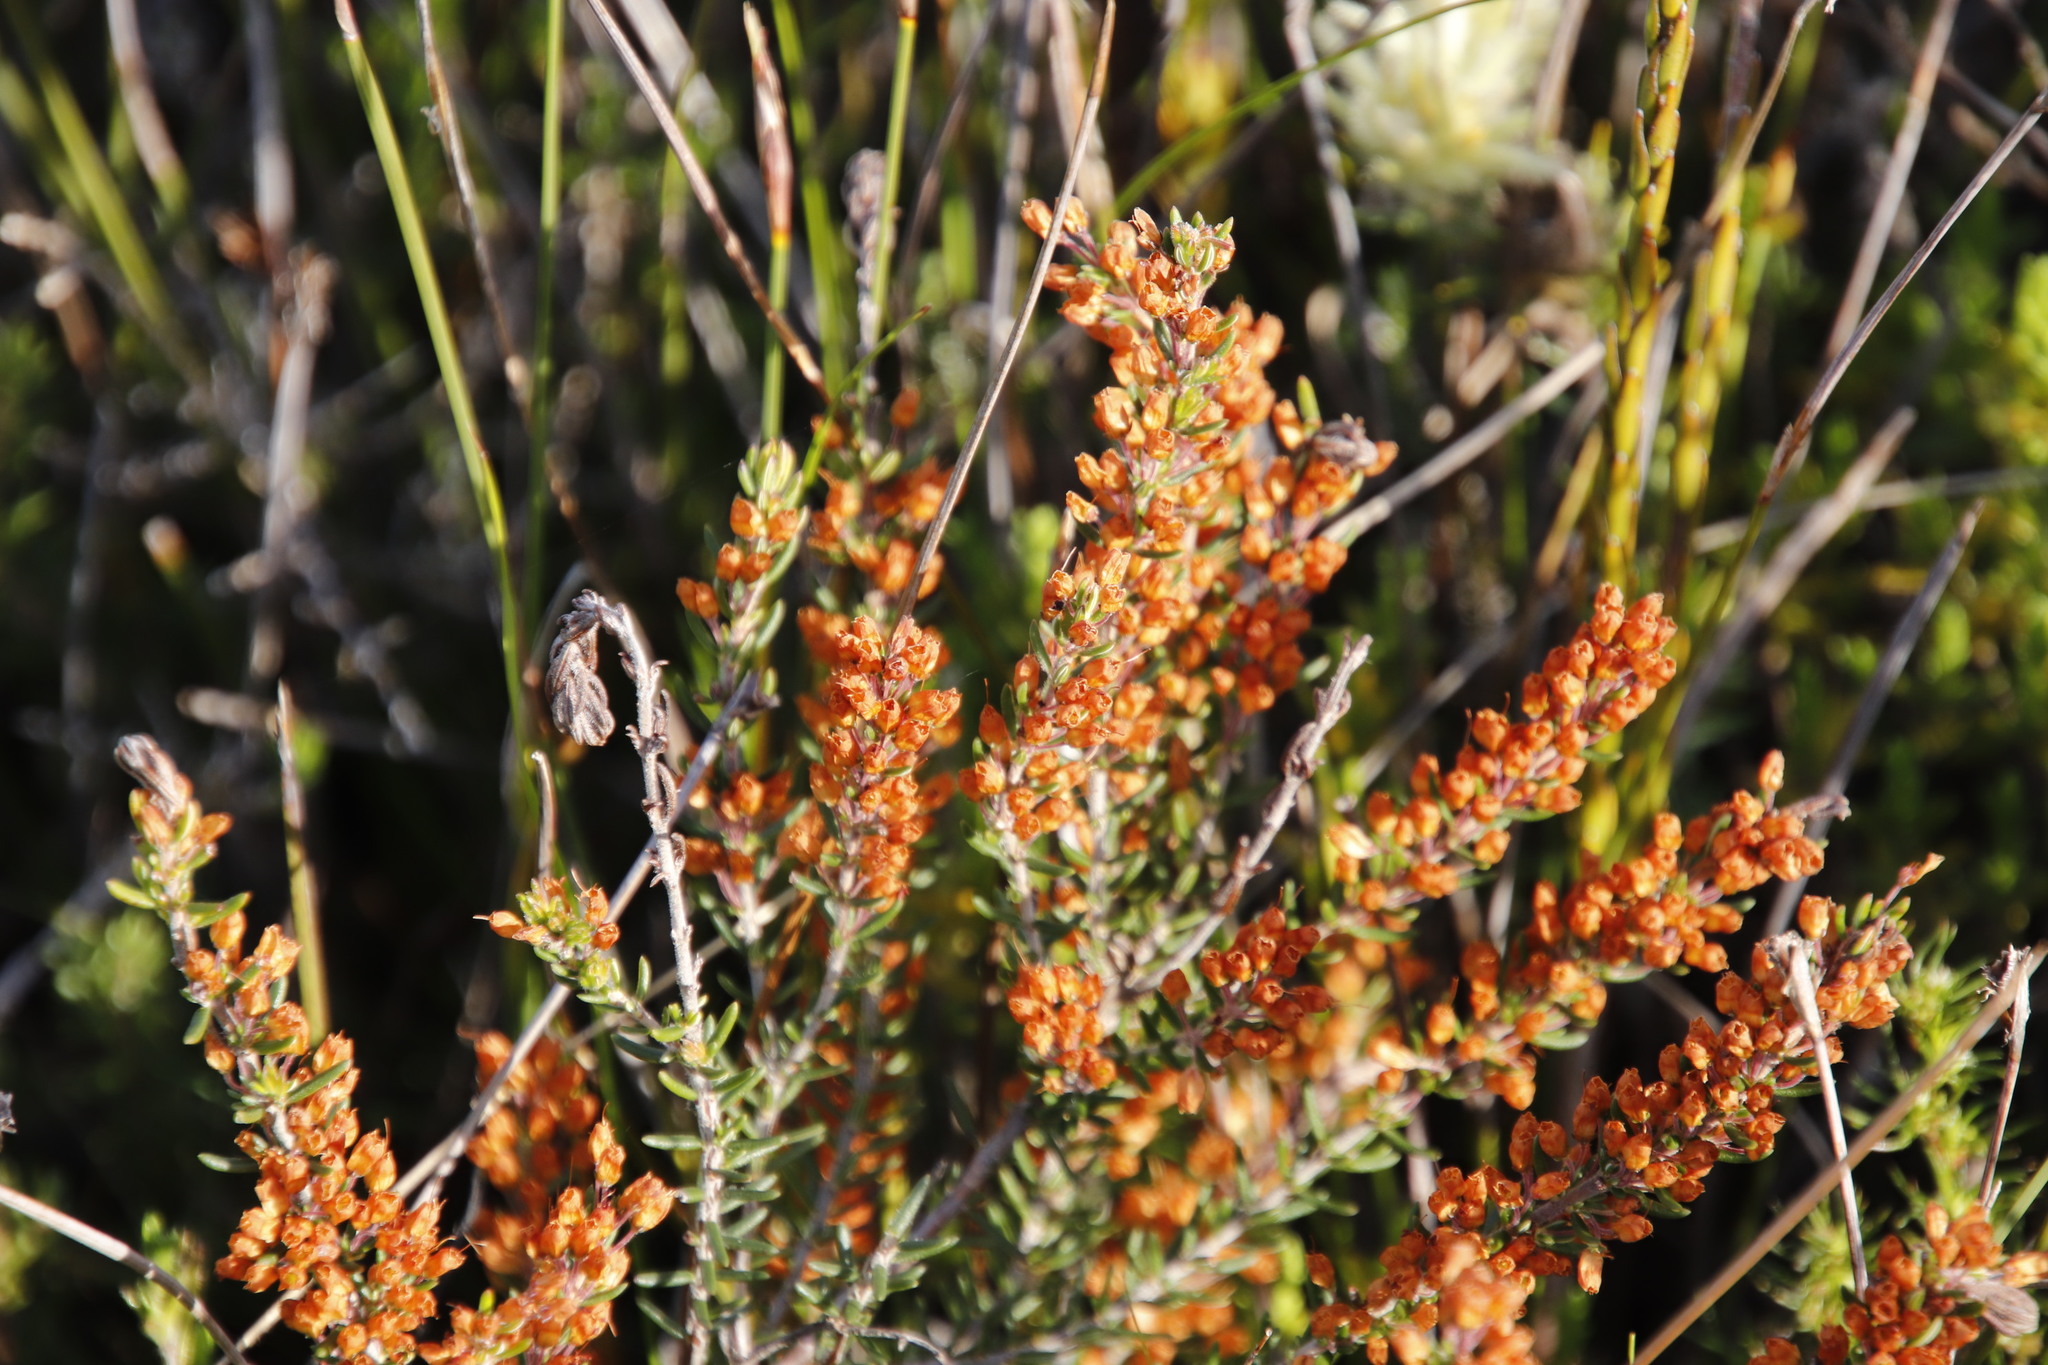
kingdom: Plantae
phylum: Tracheophyta
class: Magnoliopsida
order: Ericales
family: Ericaceae
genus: Erica
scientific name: Erica nudiflora
